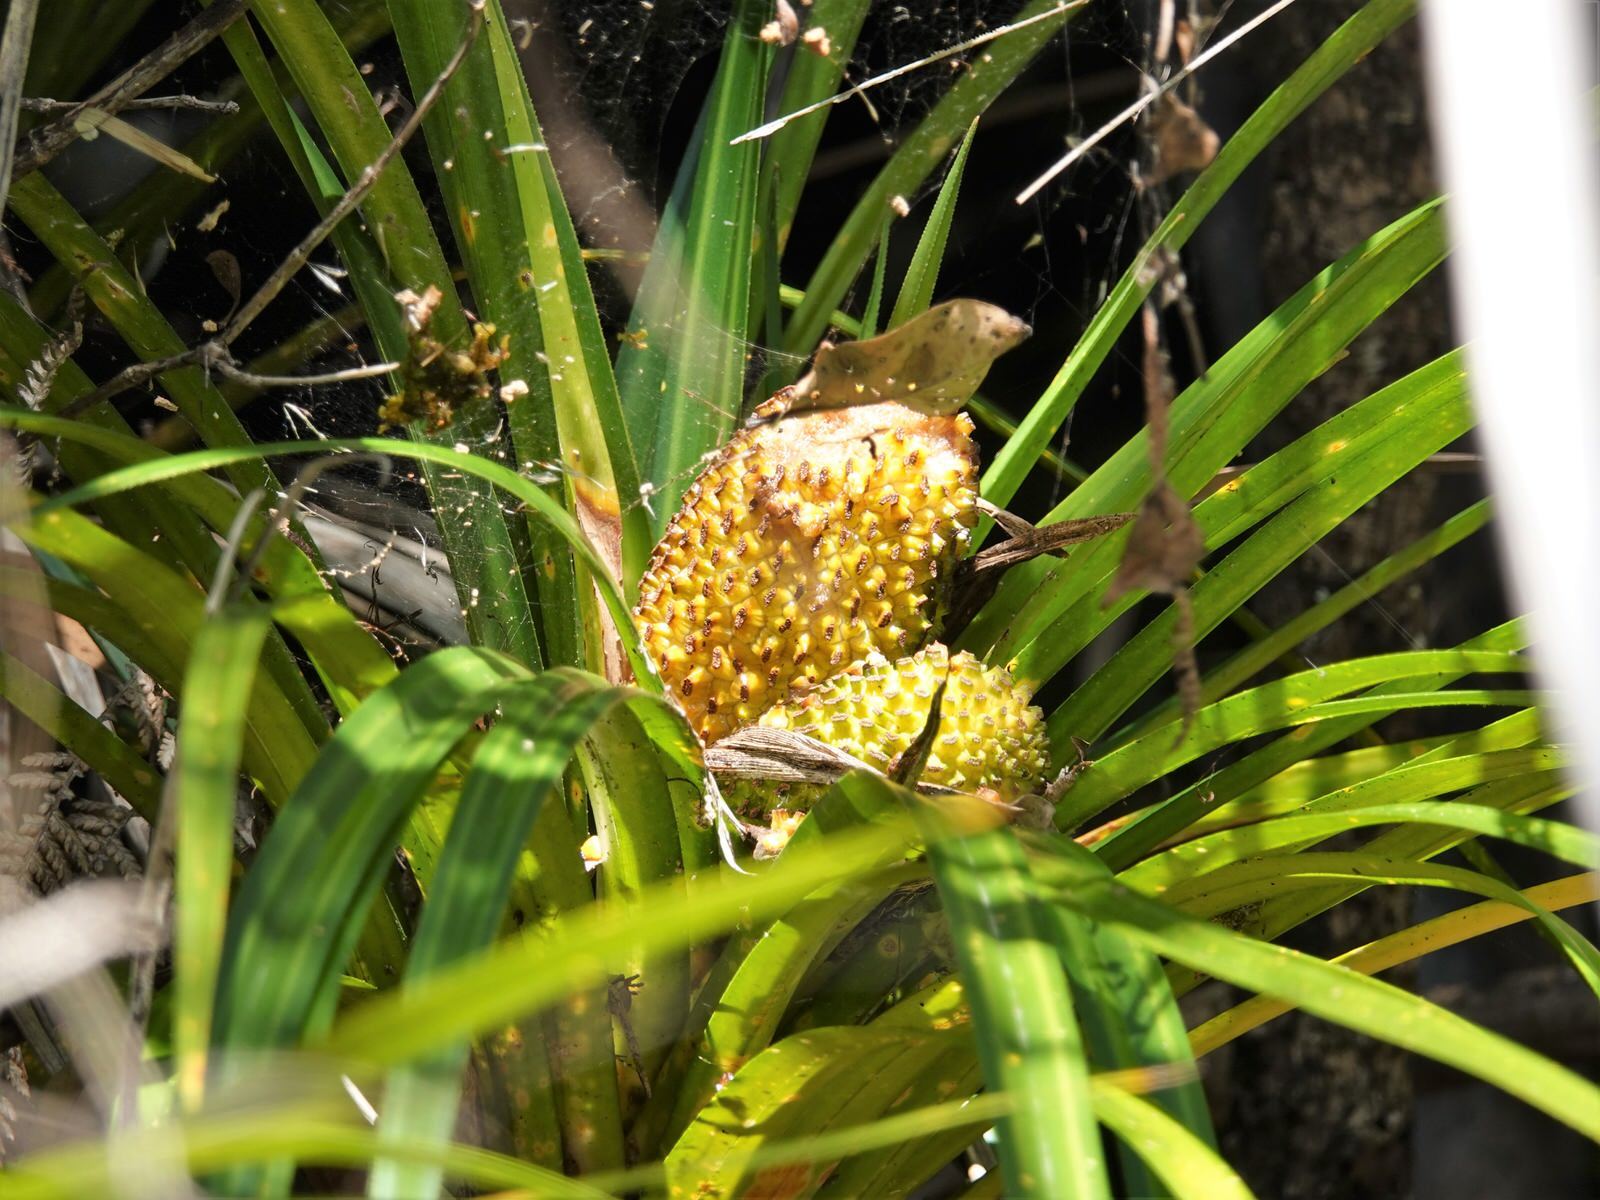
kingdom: Plantae
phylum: Tracheophyta
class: Liliopsida
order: Pandanales
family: Pandanaceae
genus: Freycinetia
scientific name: Freycinetia banksii
